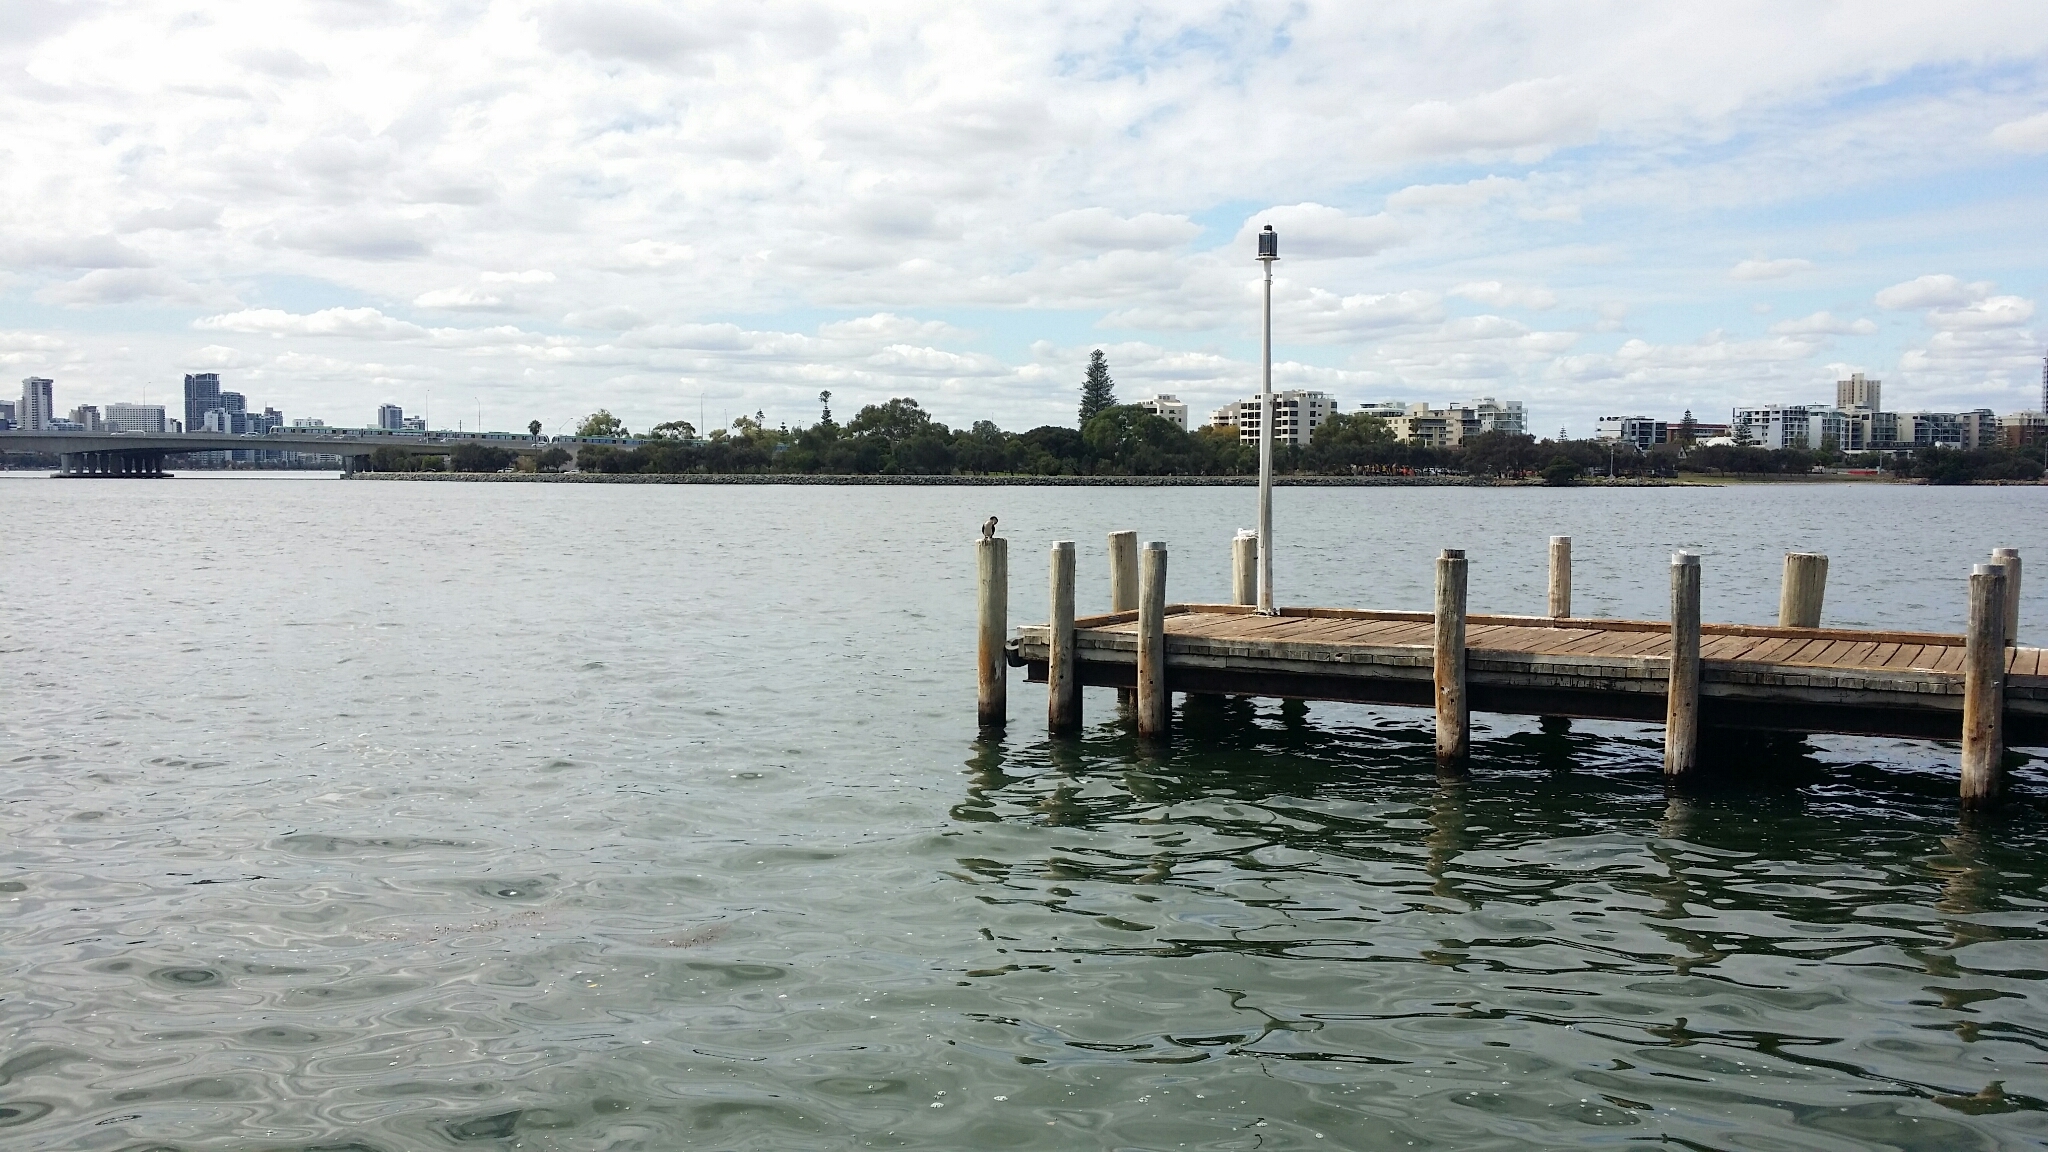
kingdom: Animalia
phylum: Chordata
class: Aves
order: Suliformes
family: Phalacrocoracidae
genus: Microcarbo
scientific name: Microcarbo melanoleucos
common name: Little pied cormorant
